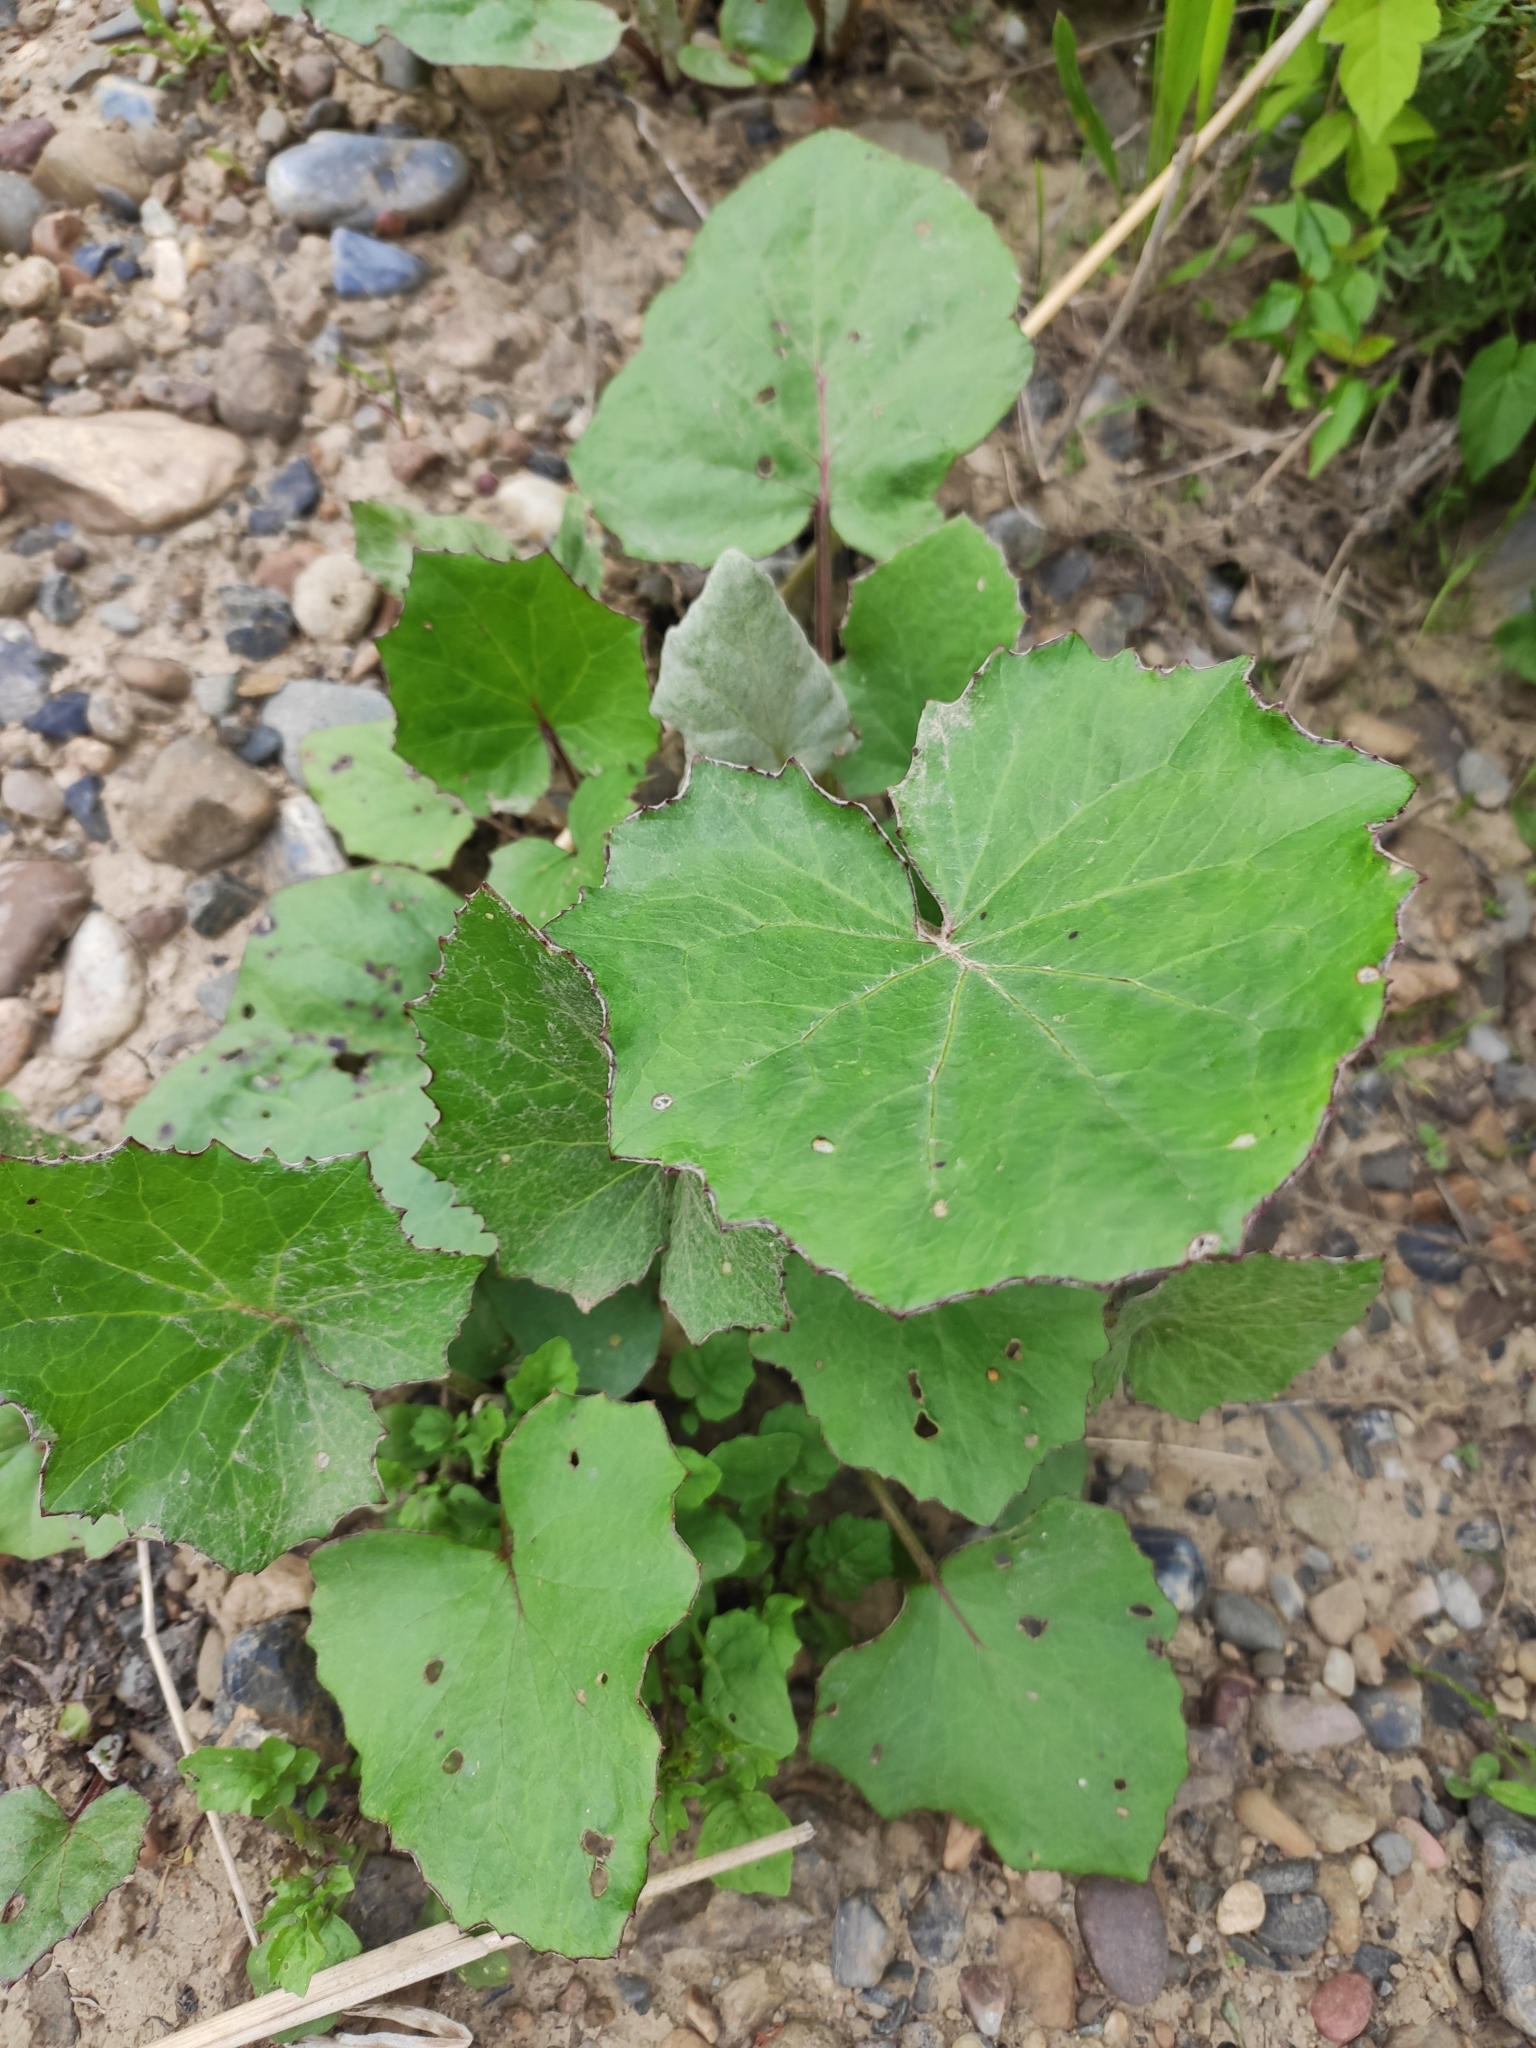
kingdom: Plantae
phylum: Tracheophyta
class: Magnoliopsida
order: Asterales
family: Asteraceae
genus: Tussilago
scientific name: Tussilago farfara
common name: Coltsfoot
